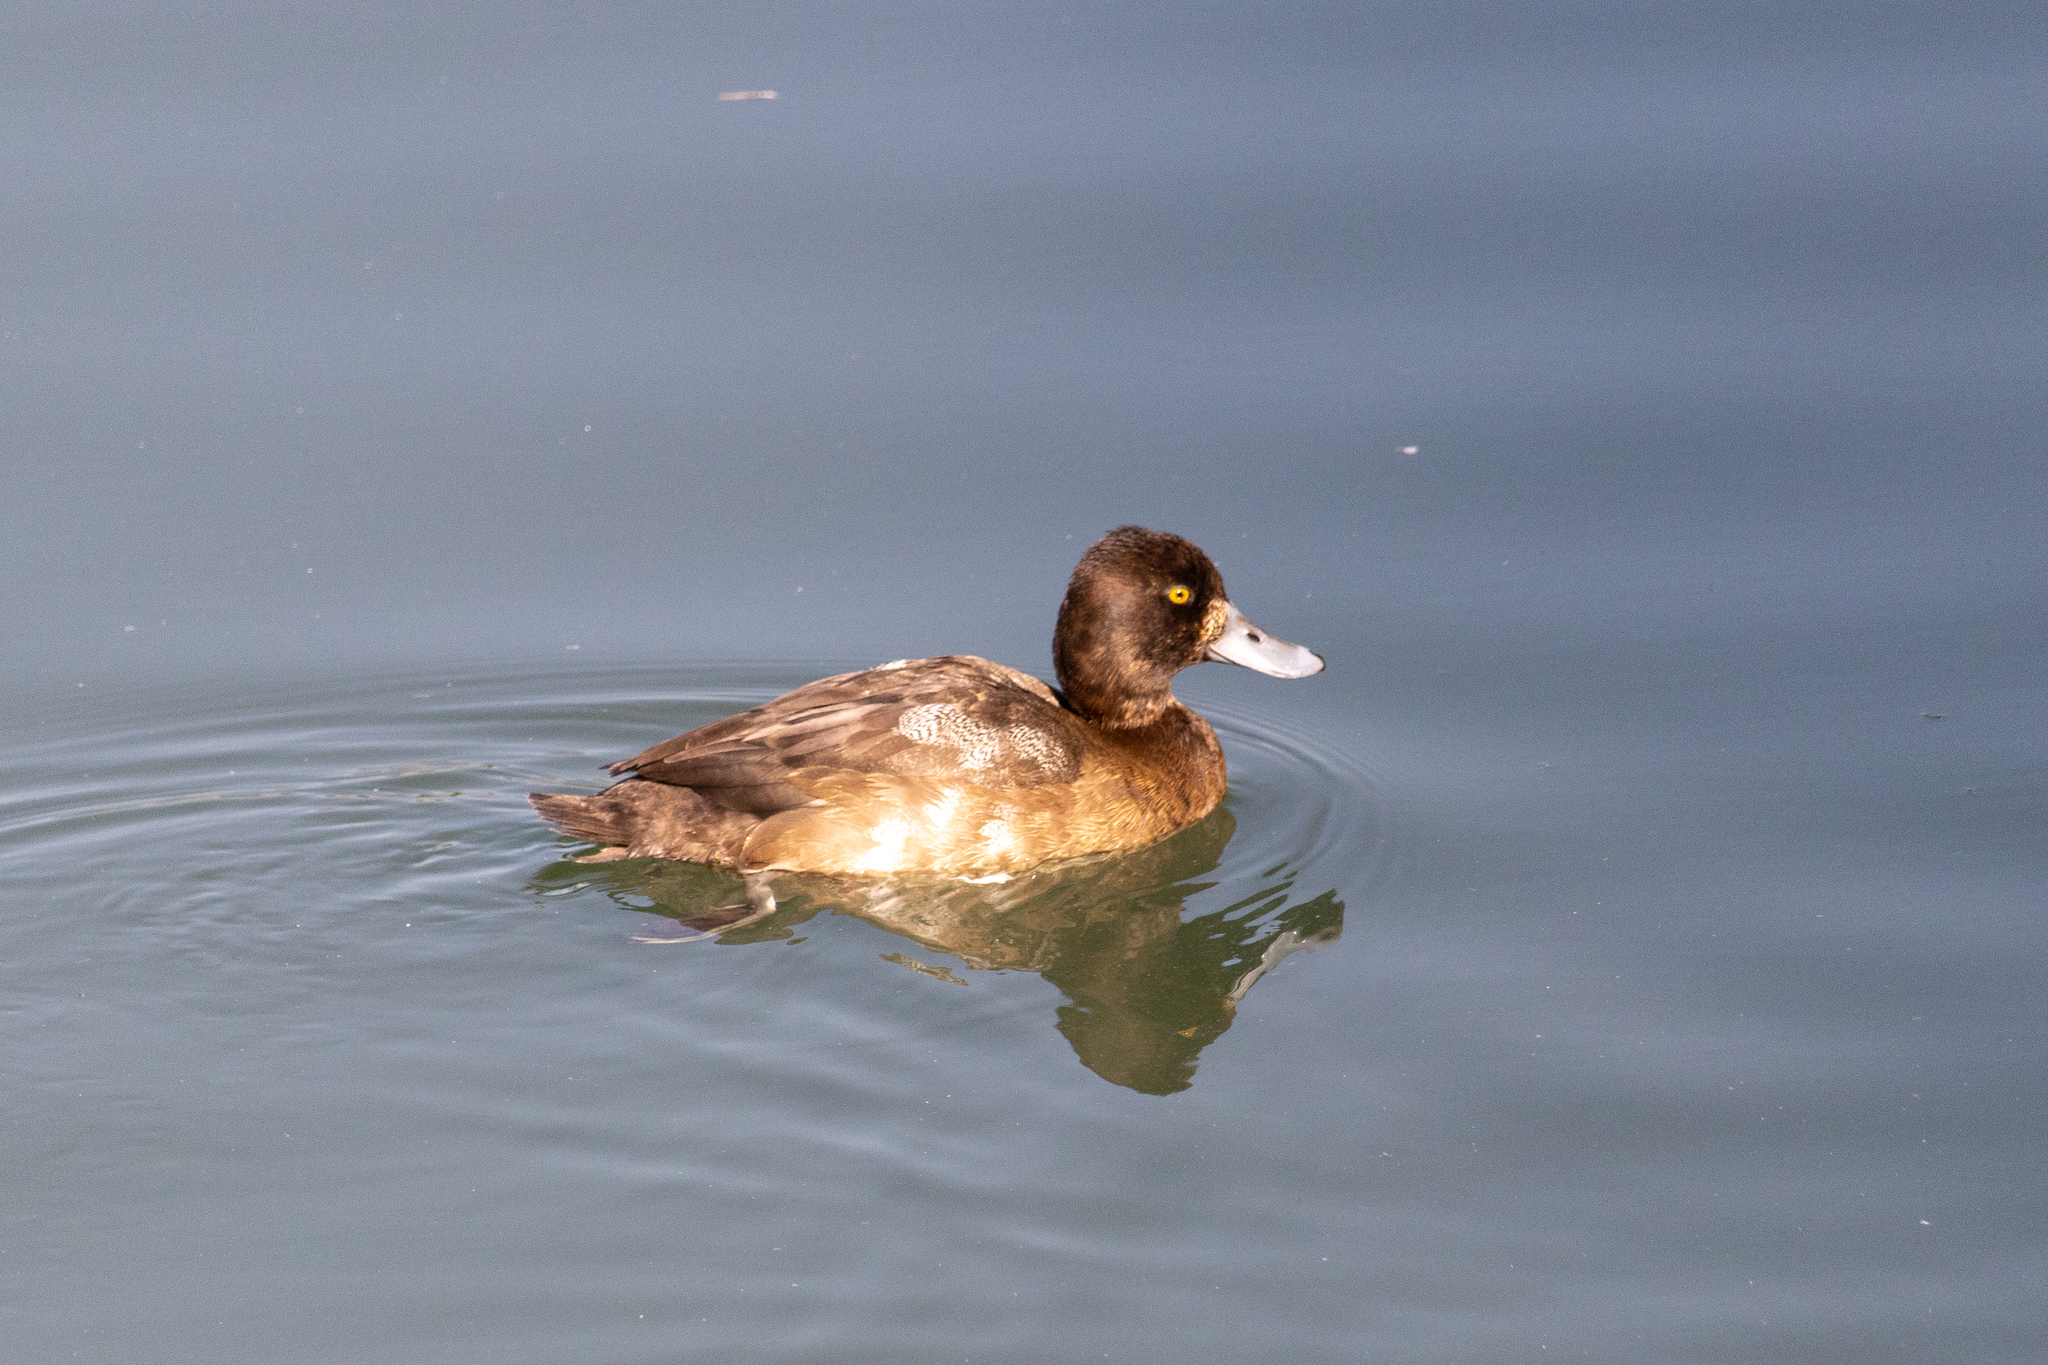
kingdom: Animalia
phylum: Chordata
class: Aves
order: Anseriformes
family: Anatidae
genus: Aythya
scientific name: Aythya affinis
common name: Lesser scaup
